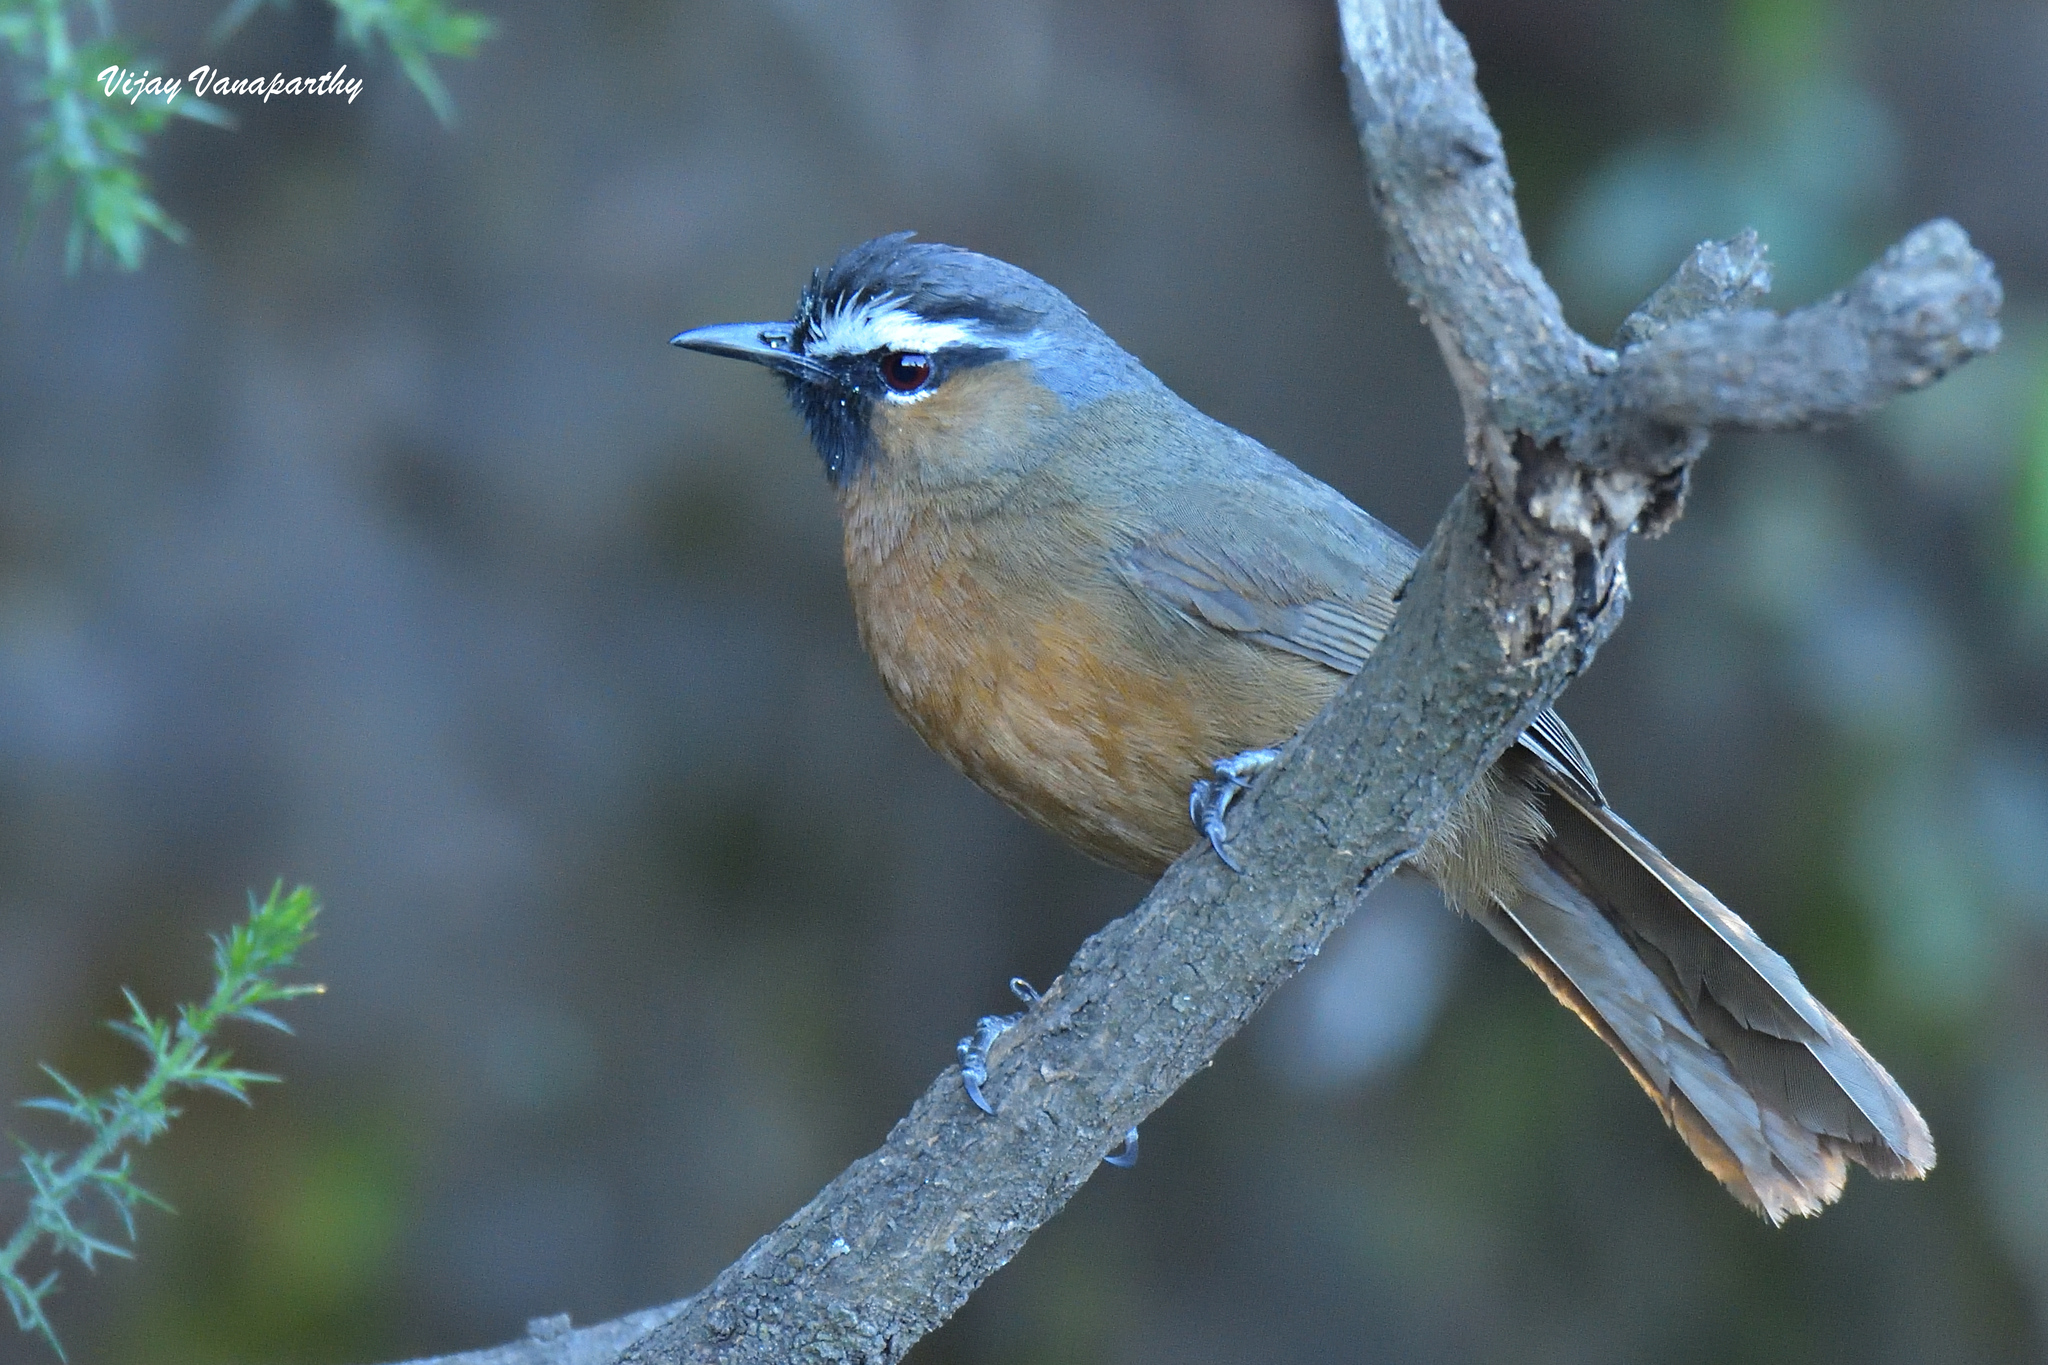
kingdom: Animalia
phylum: Chordata
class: Aves
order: Passeriformes
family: Leiothrichidae
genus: Trochalopteron
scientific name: Trochalopteron cachinnans
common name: Black-chinned laughingthrush
